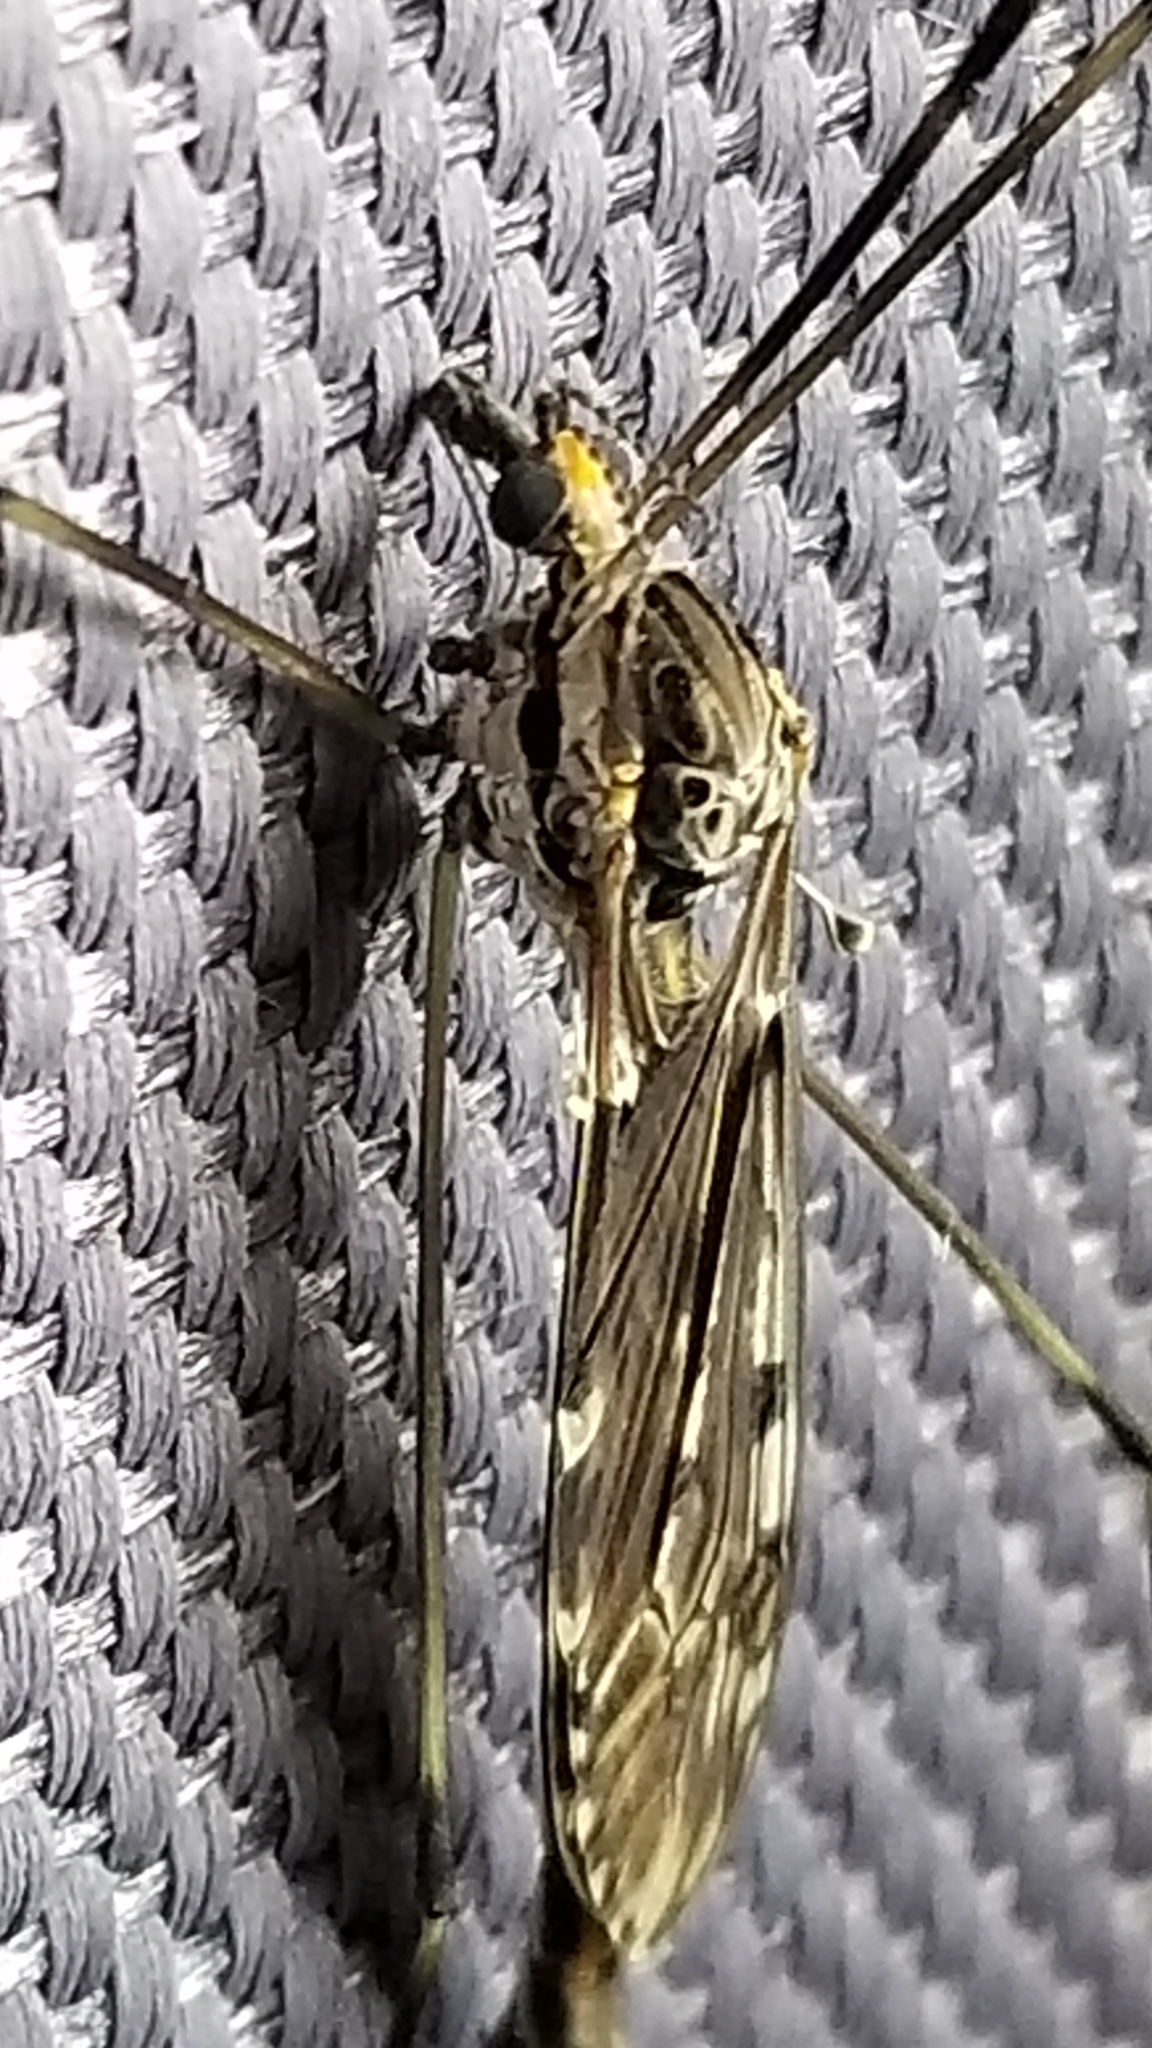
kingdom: Animalia
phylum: Arthropoda
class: Insecta
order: Diptera
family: Tipulidae
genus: Tipula
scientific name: Tipula abdominalis
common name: Giant crane fly
